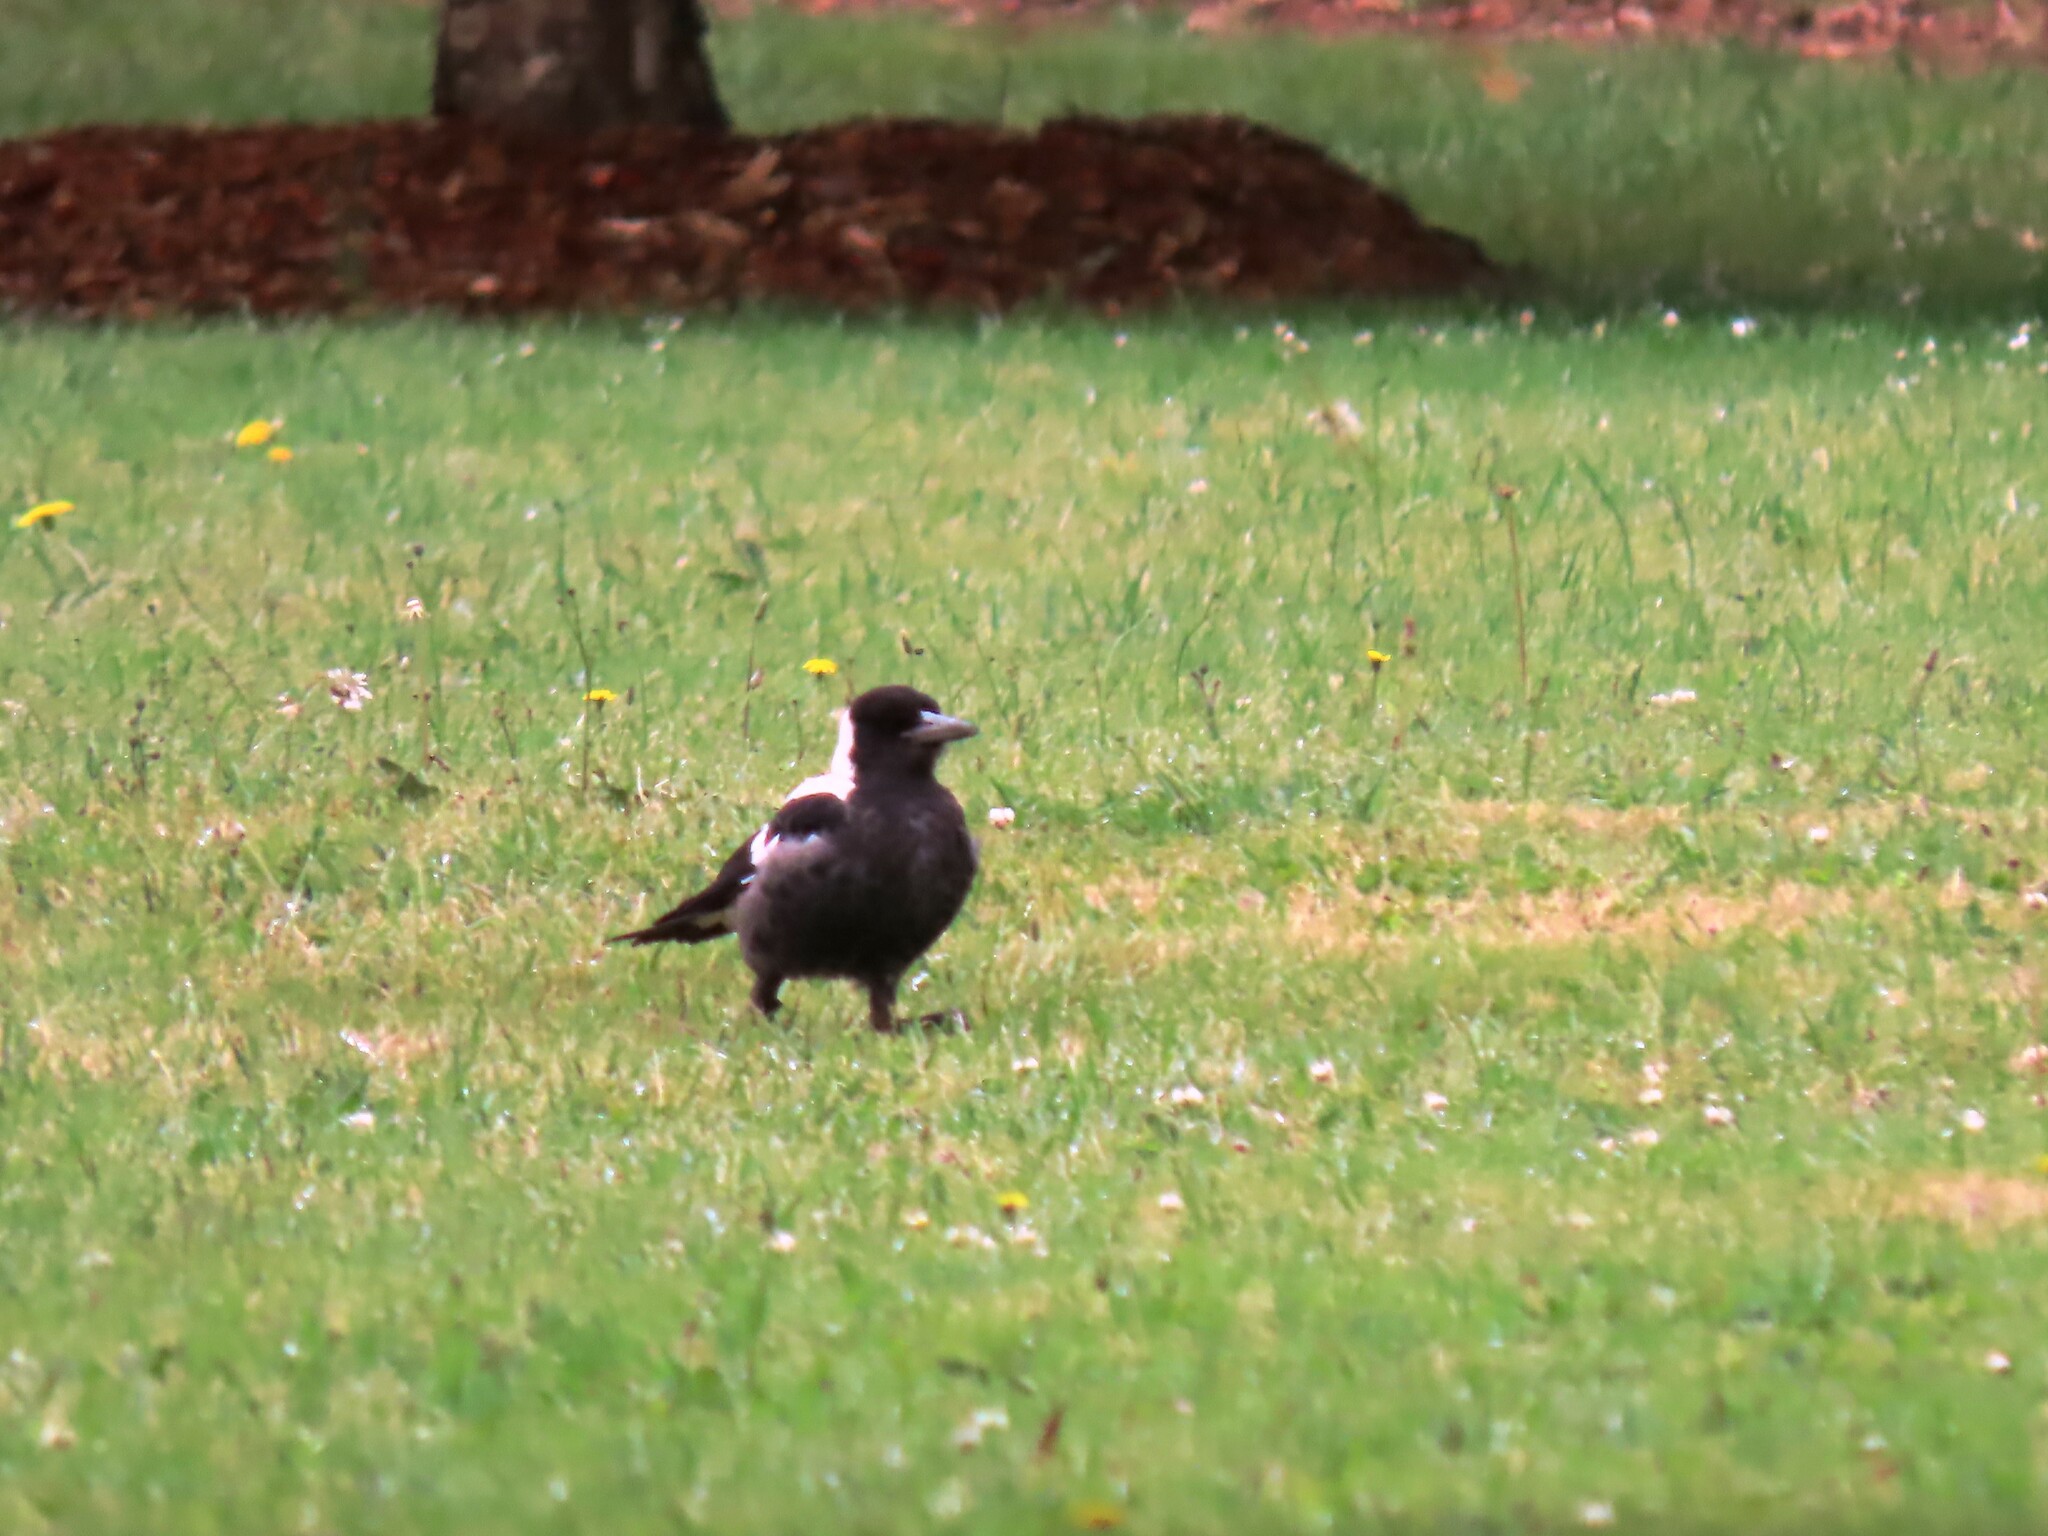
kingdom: Animalia
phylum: Chordata
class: Aves
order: Passeriformes
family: Cracticidae
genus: Gymnorhina
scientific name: Gymnorhina tibicen
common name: Australian magpie
